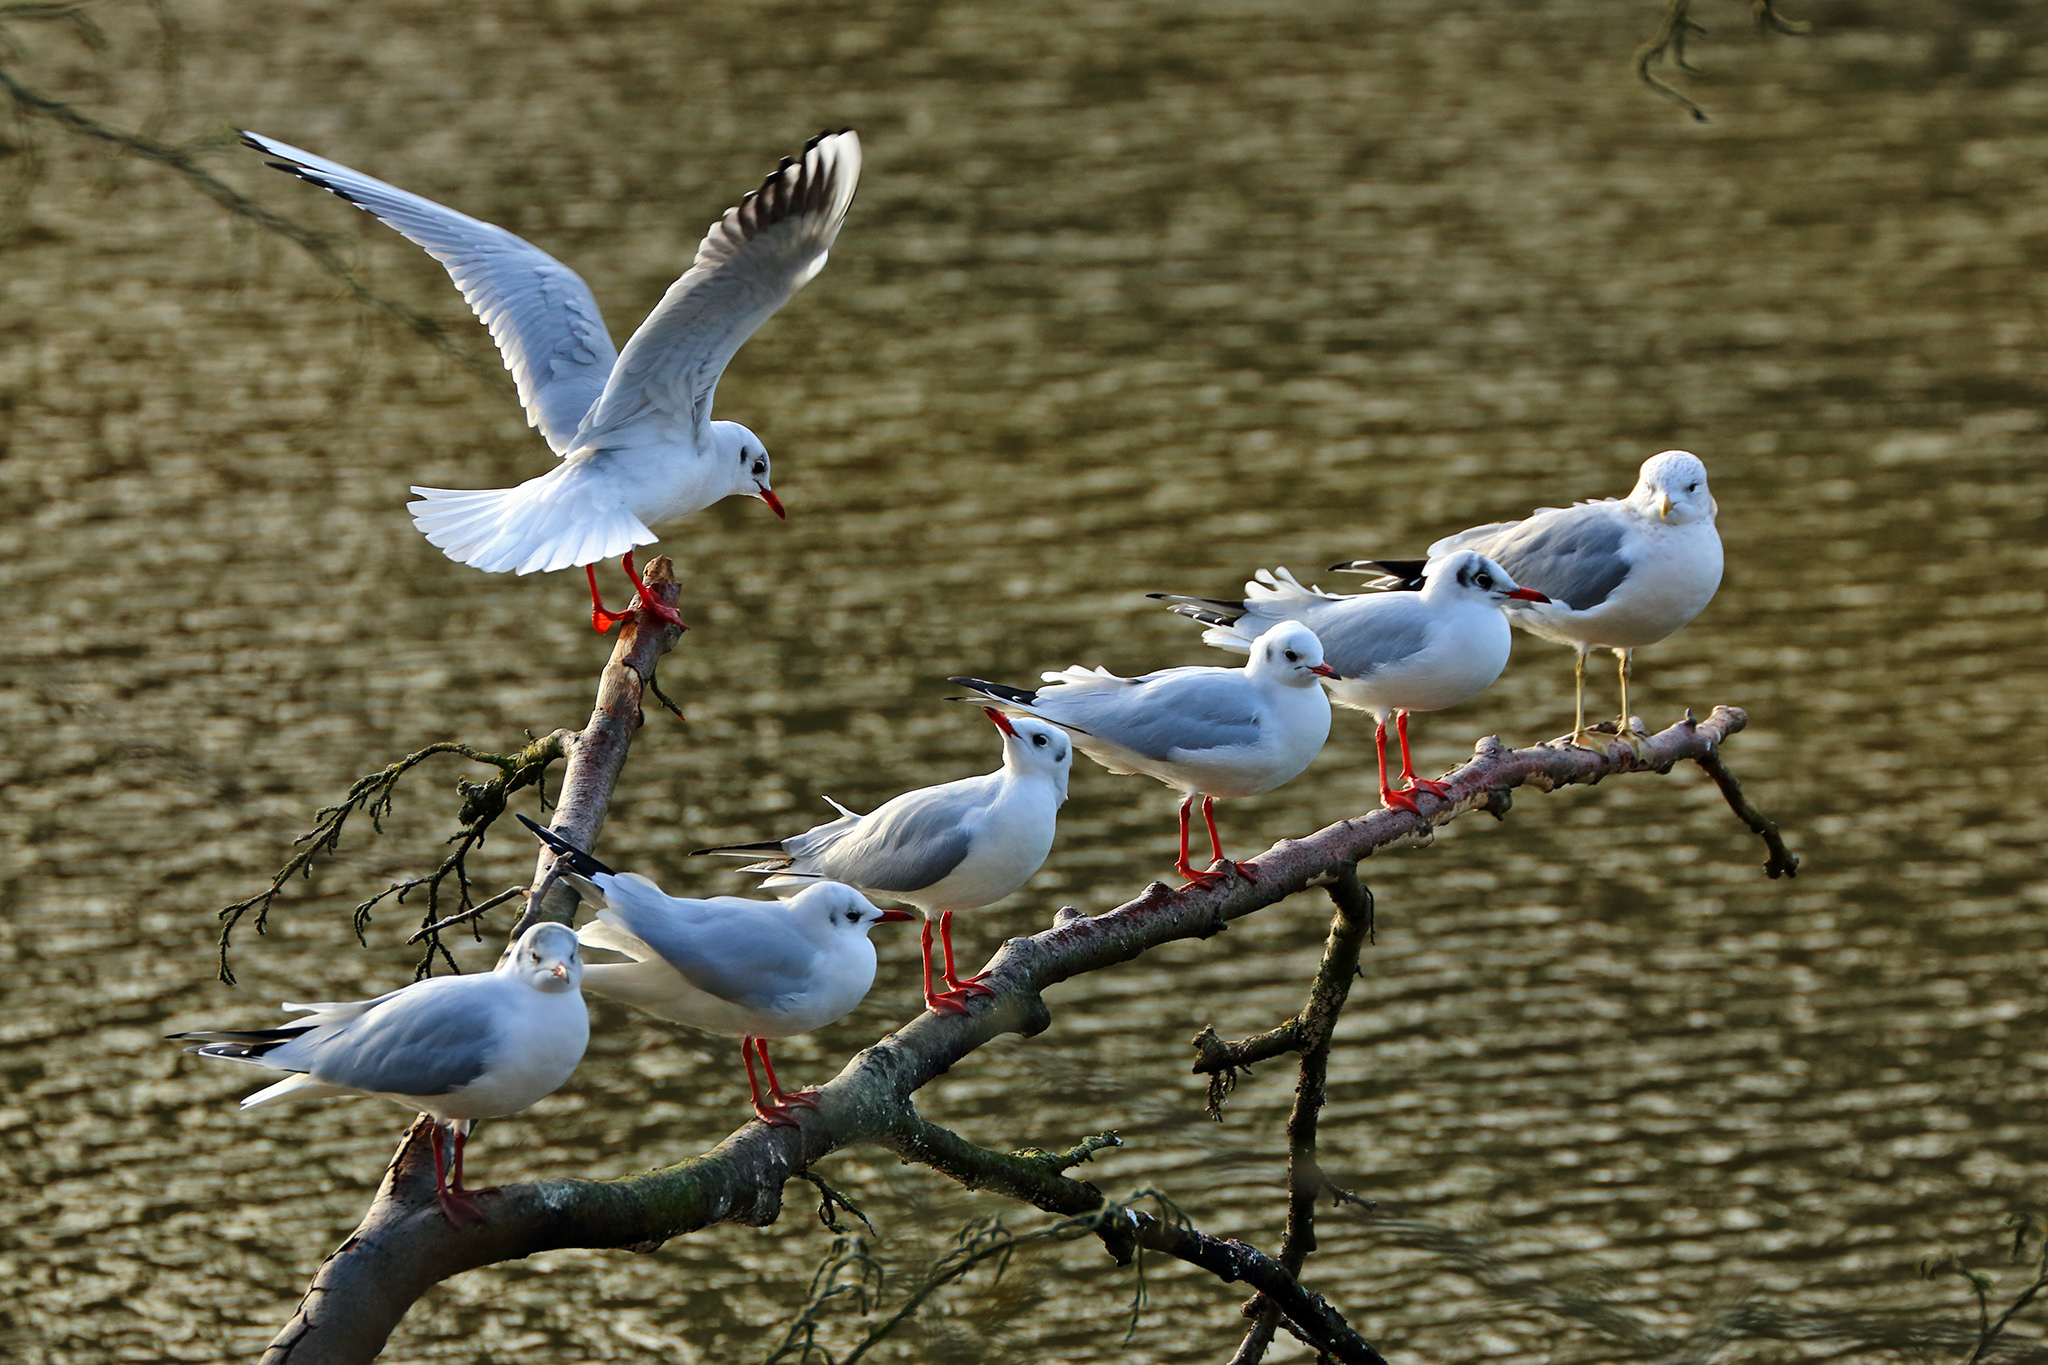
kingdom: Animalia
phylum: Chordata
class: Aves
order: Charadriiformes
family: Laridae
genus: Chroicocephalus
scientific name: Chroicocephalus ridibundus
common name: Black-headed gull
